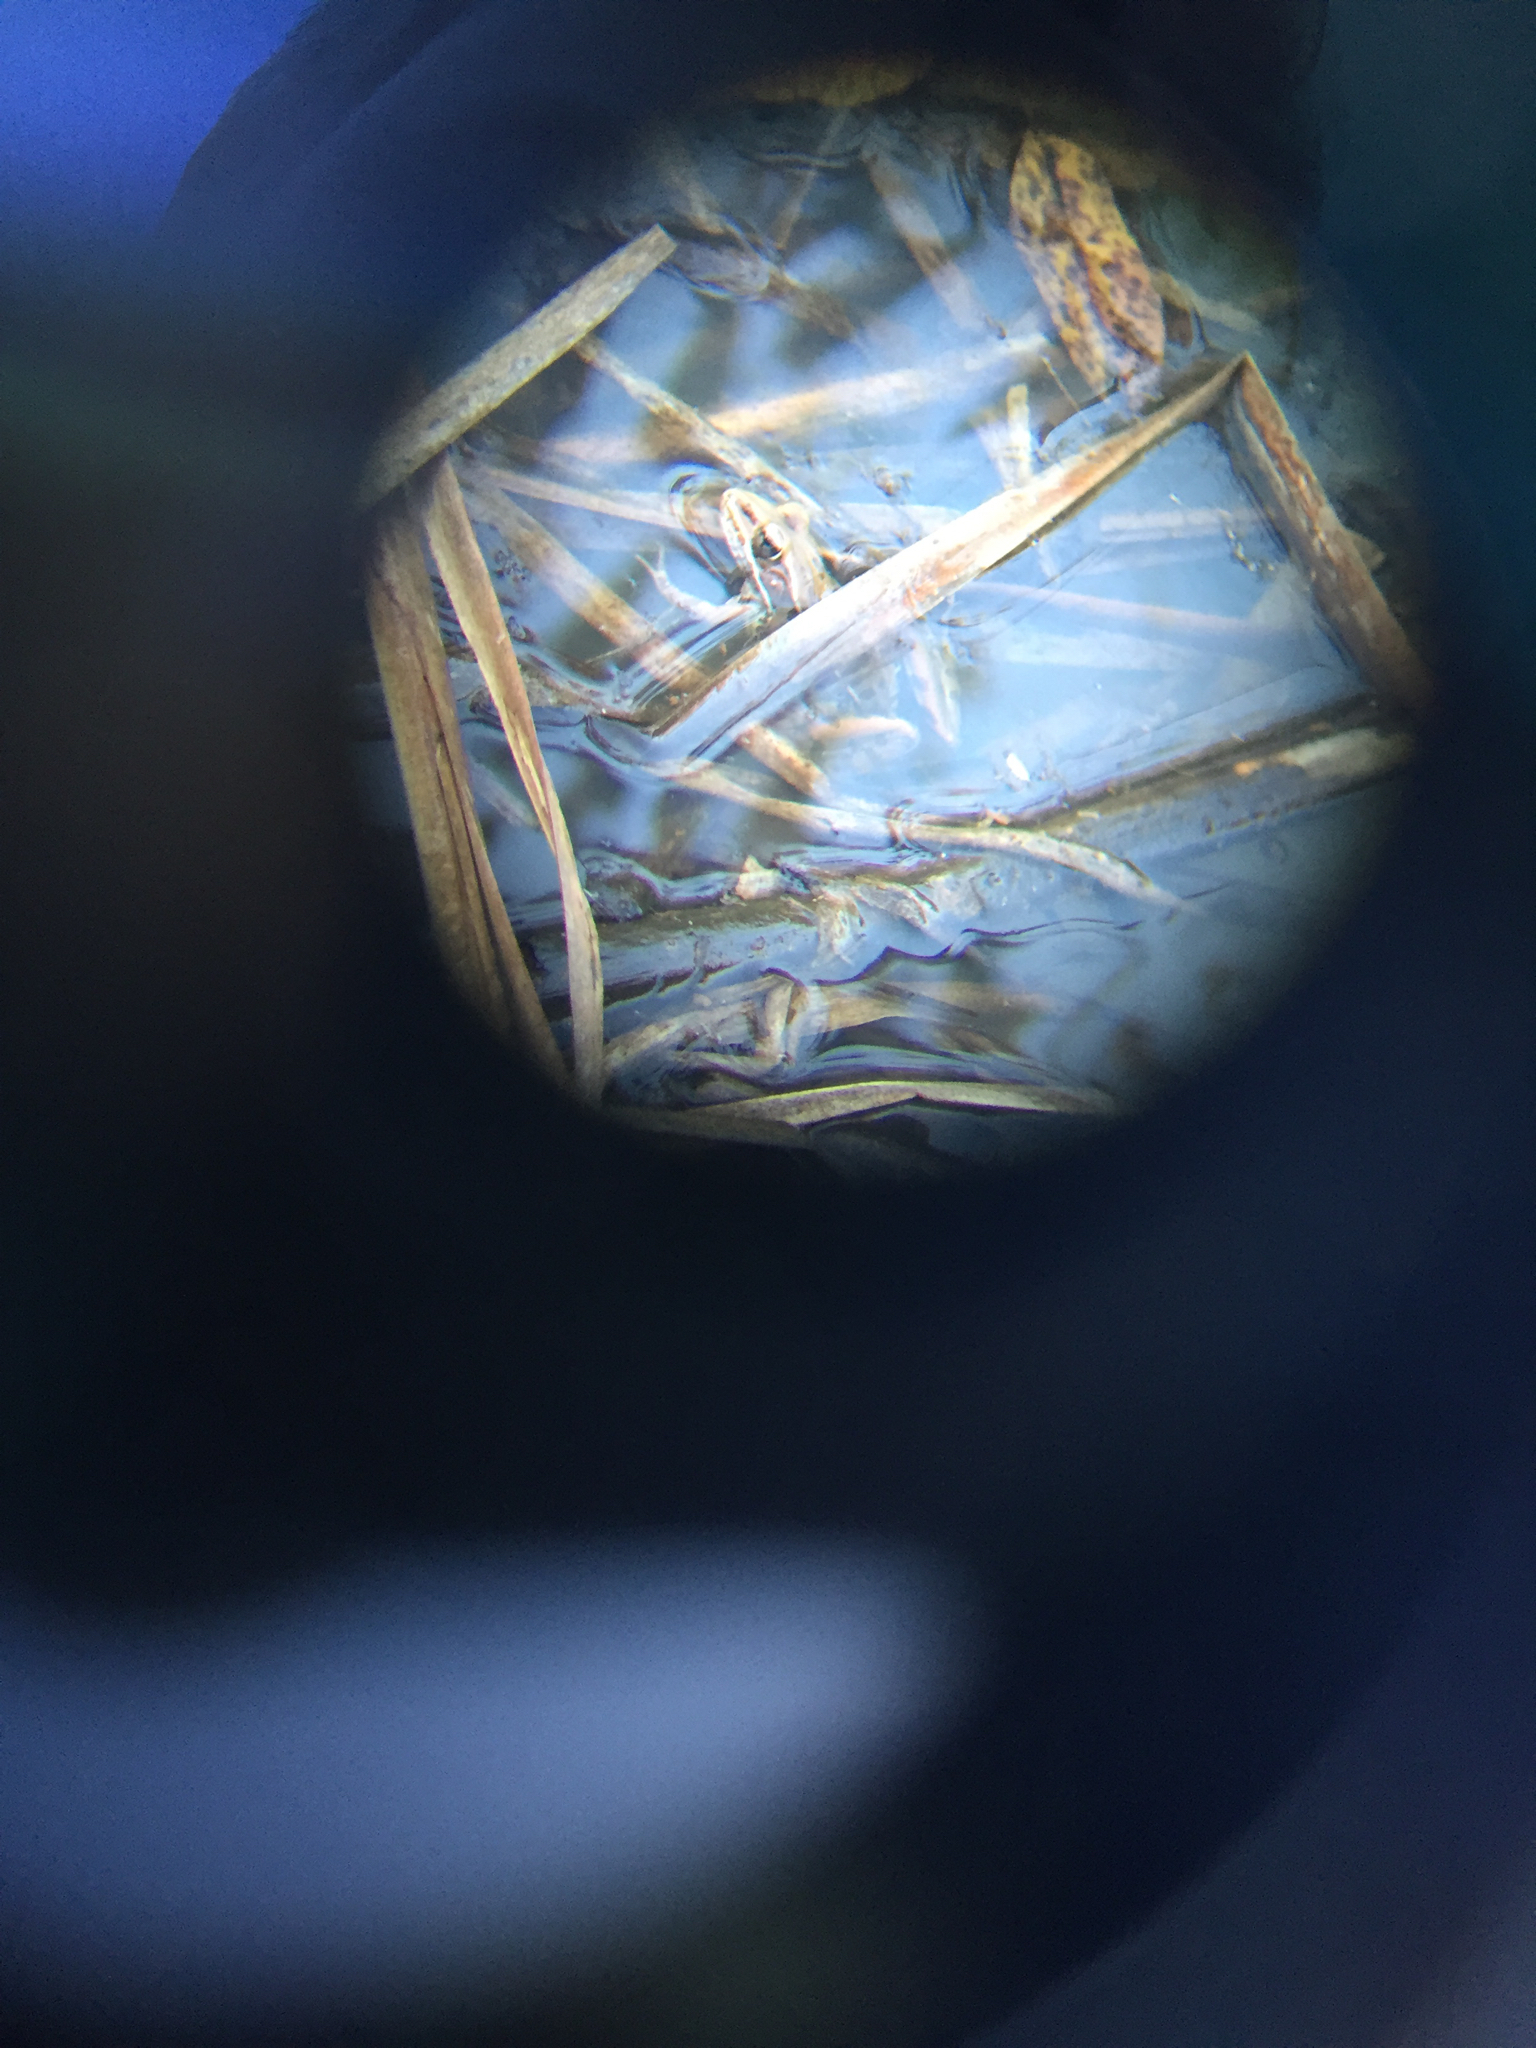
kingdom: Animalia
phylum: Chordata
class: Amphibia
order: Anura
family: Ranidae
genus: Lithobates
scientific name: Lithobates sphenocephalus
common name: Southern leopard frog
